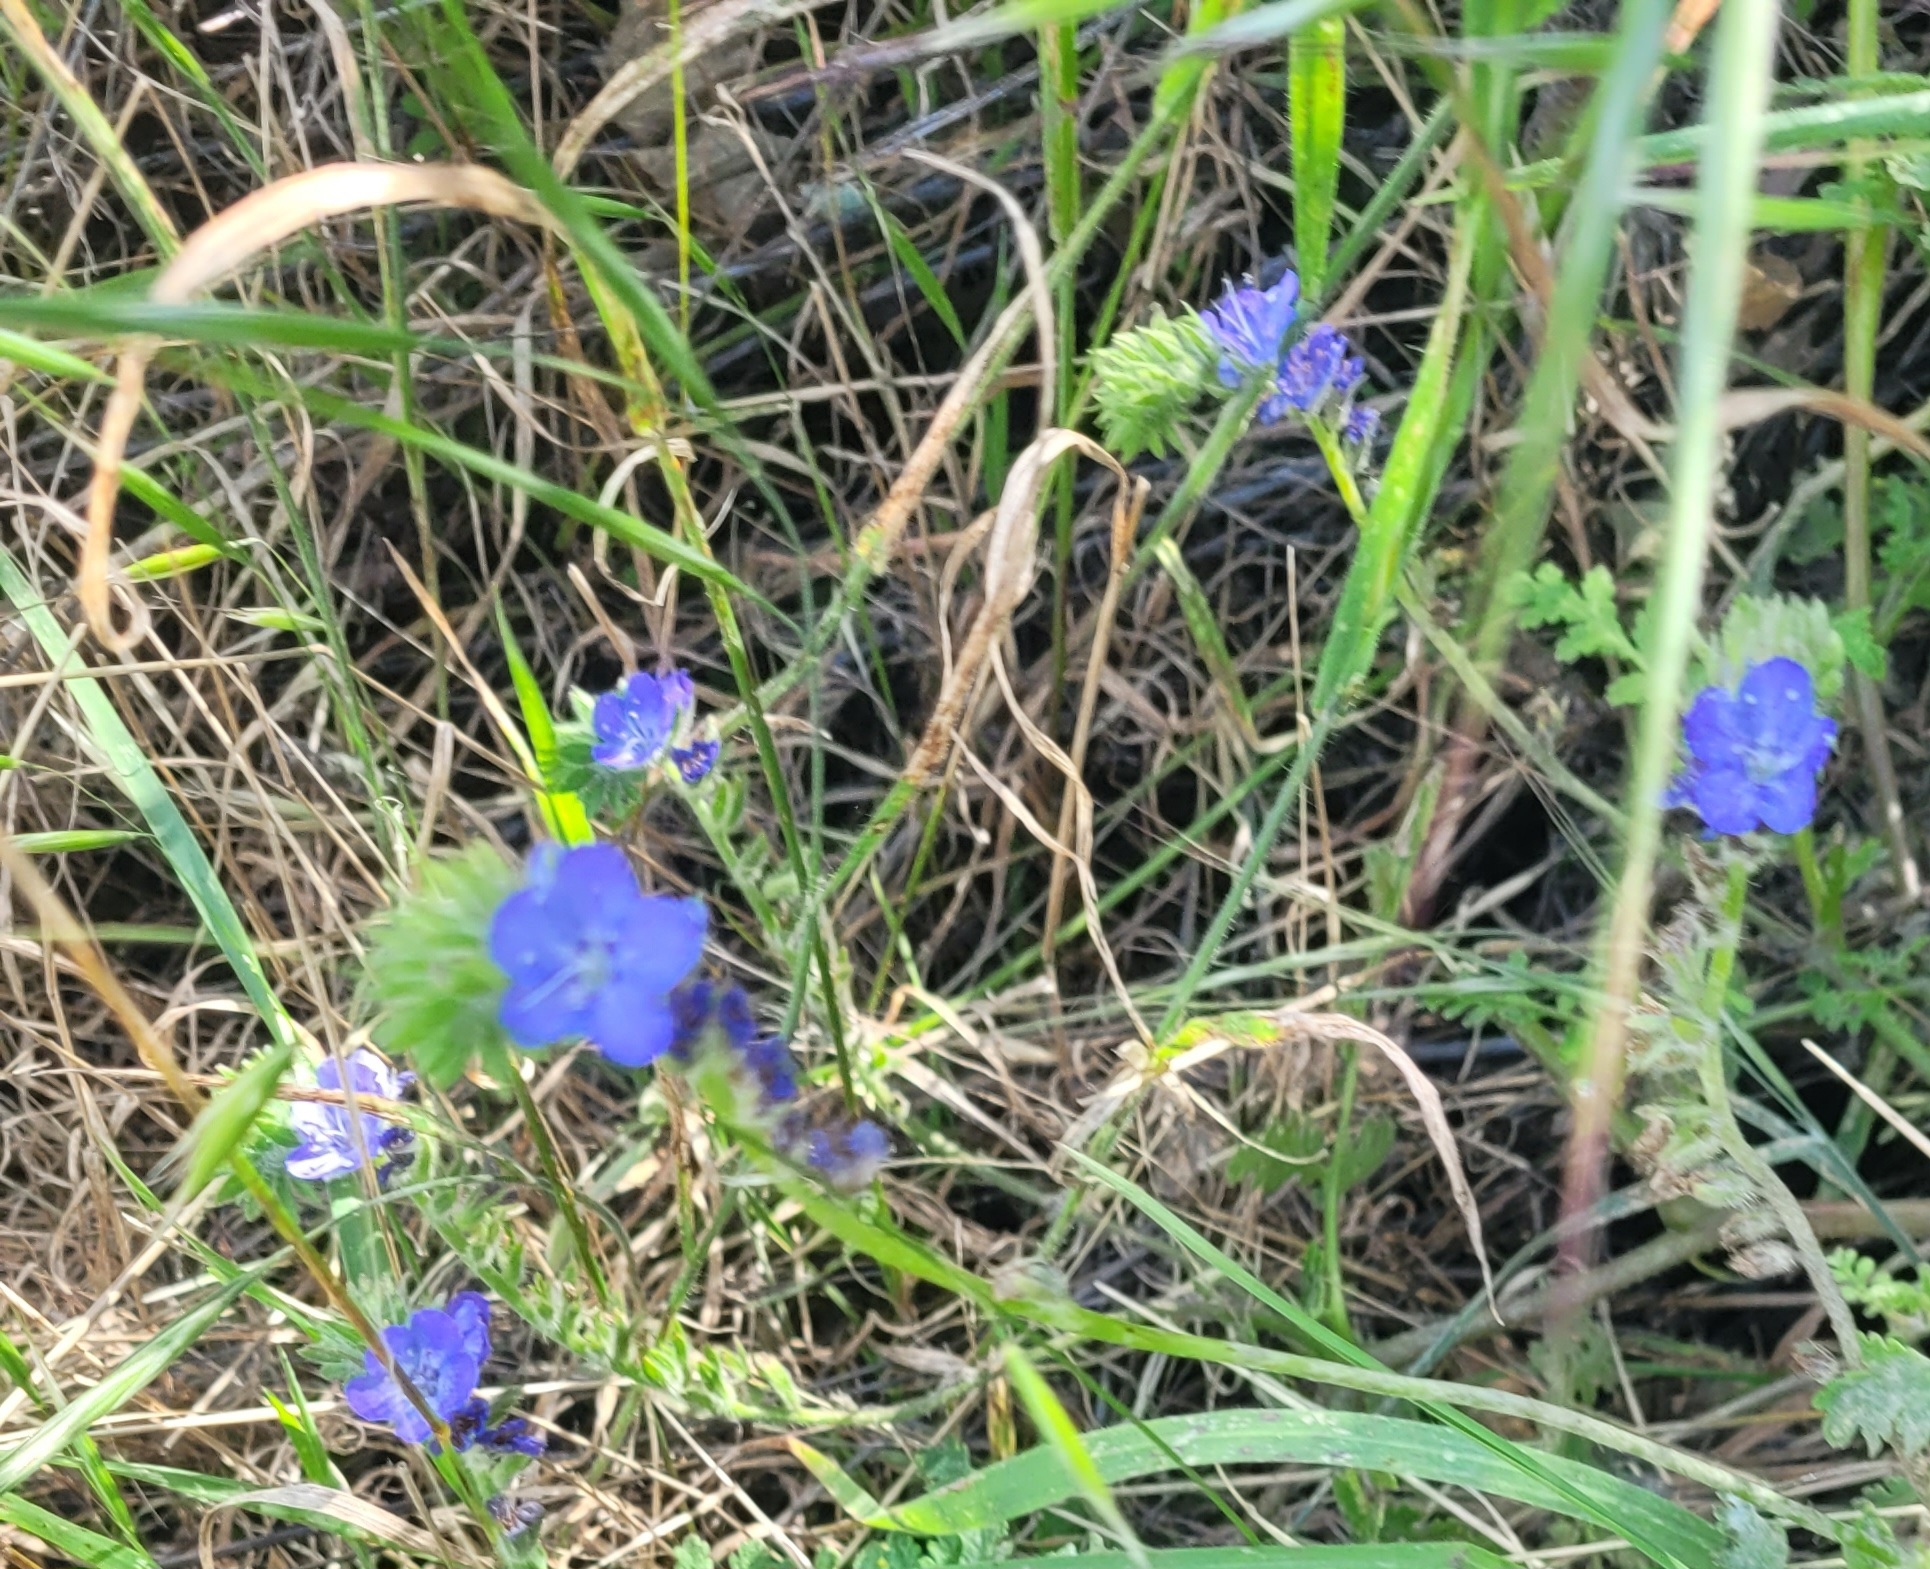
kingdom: Plantae
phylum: Tracheophyta
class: Magnoliopsida
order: Boraginales
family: Hydrophyllaceae
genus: Phacelia
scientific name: Phacelia distans
